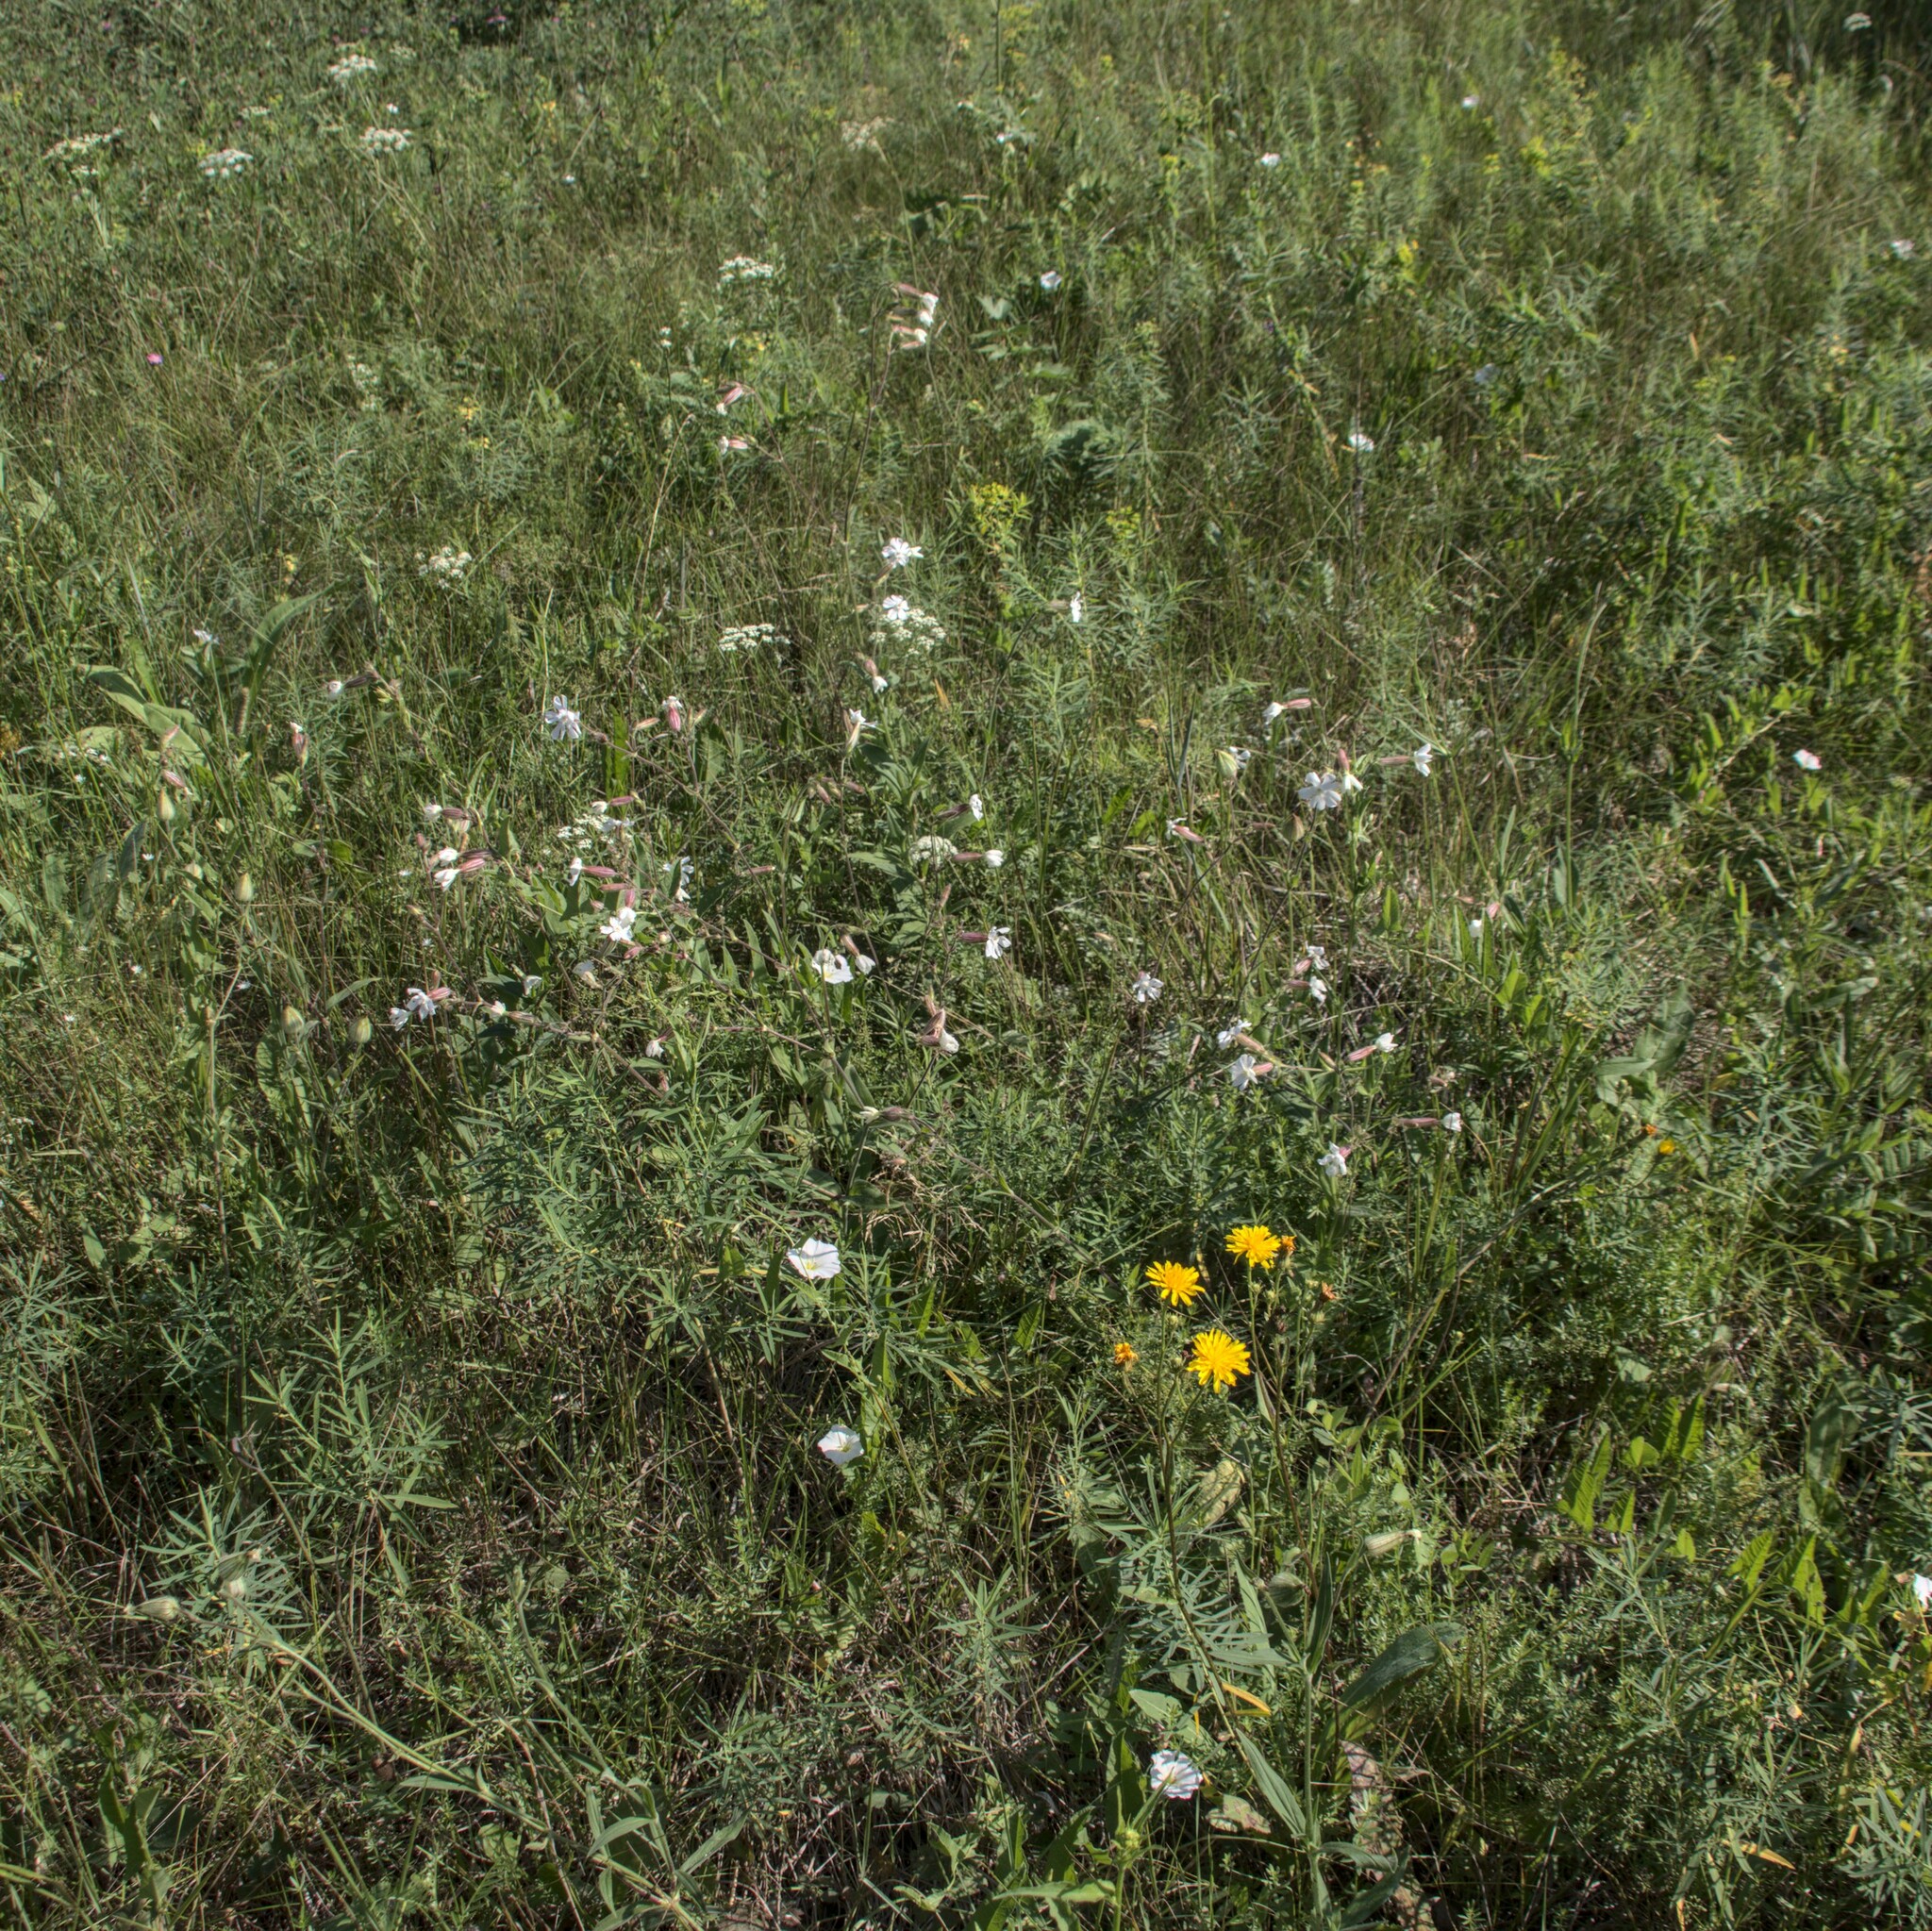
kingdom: Plantae
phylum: Tracheophyta
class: Magnoliopsida
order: Caryophyllales
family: Caryophyllaceae
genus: Silene
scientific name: Silene latifolia
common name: White campion
